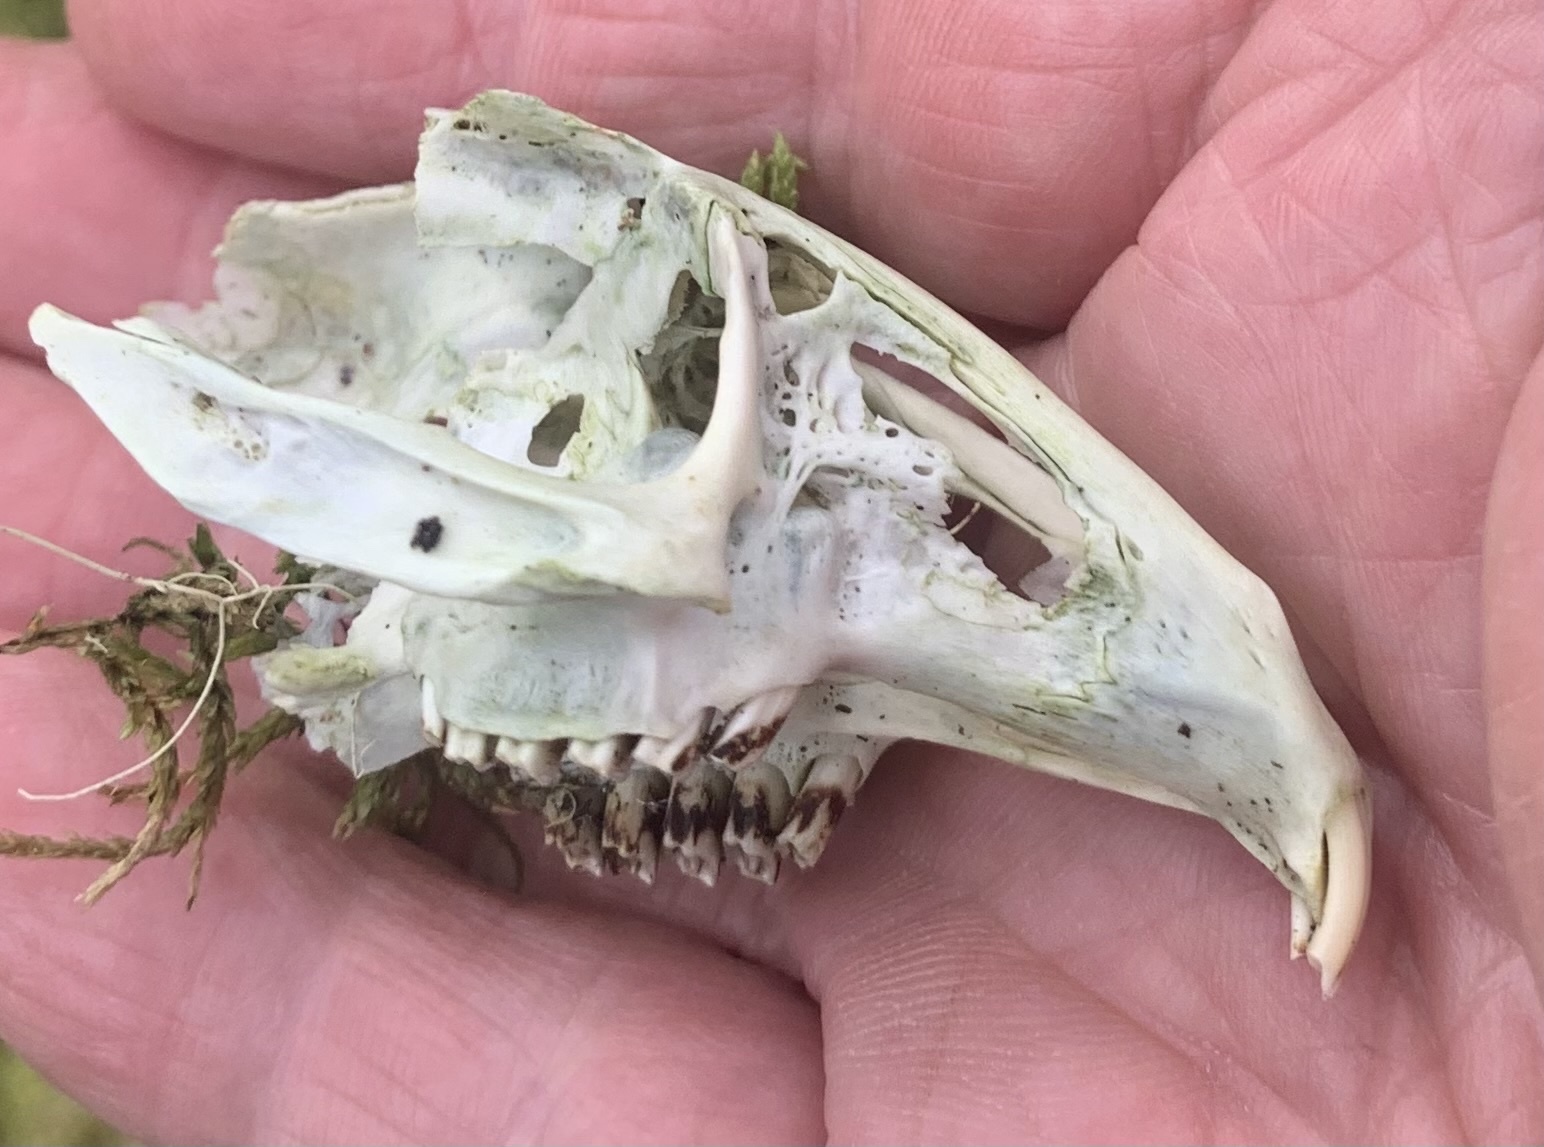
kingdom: Animalia
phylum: Chordata
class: Mammalia
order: Lagomorpha
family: Leporidae
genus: Lepus
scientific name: Lepus americanus
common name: Snowshoe hare
